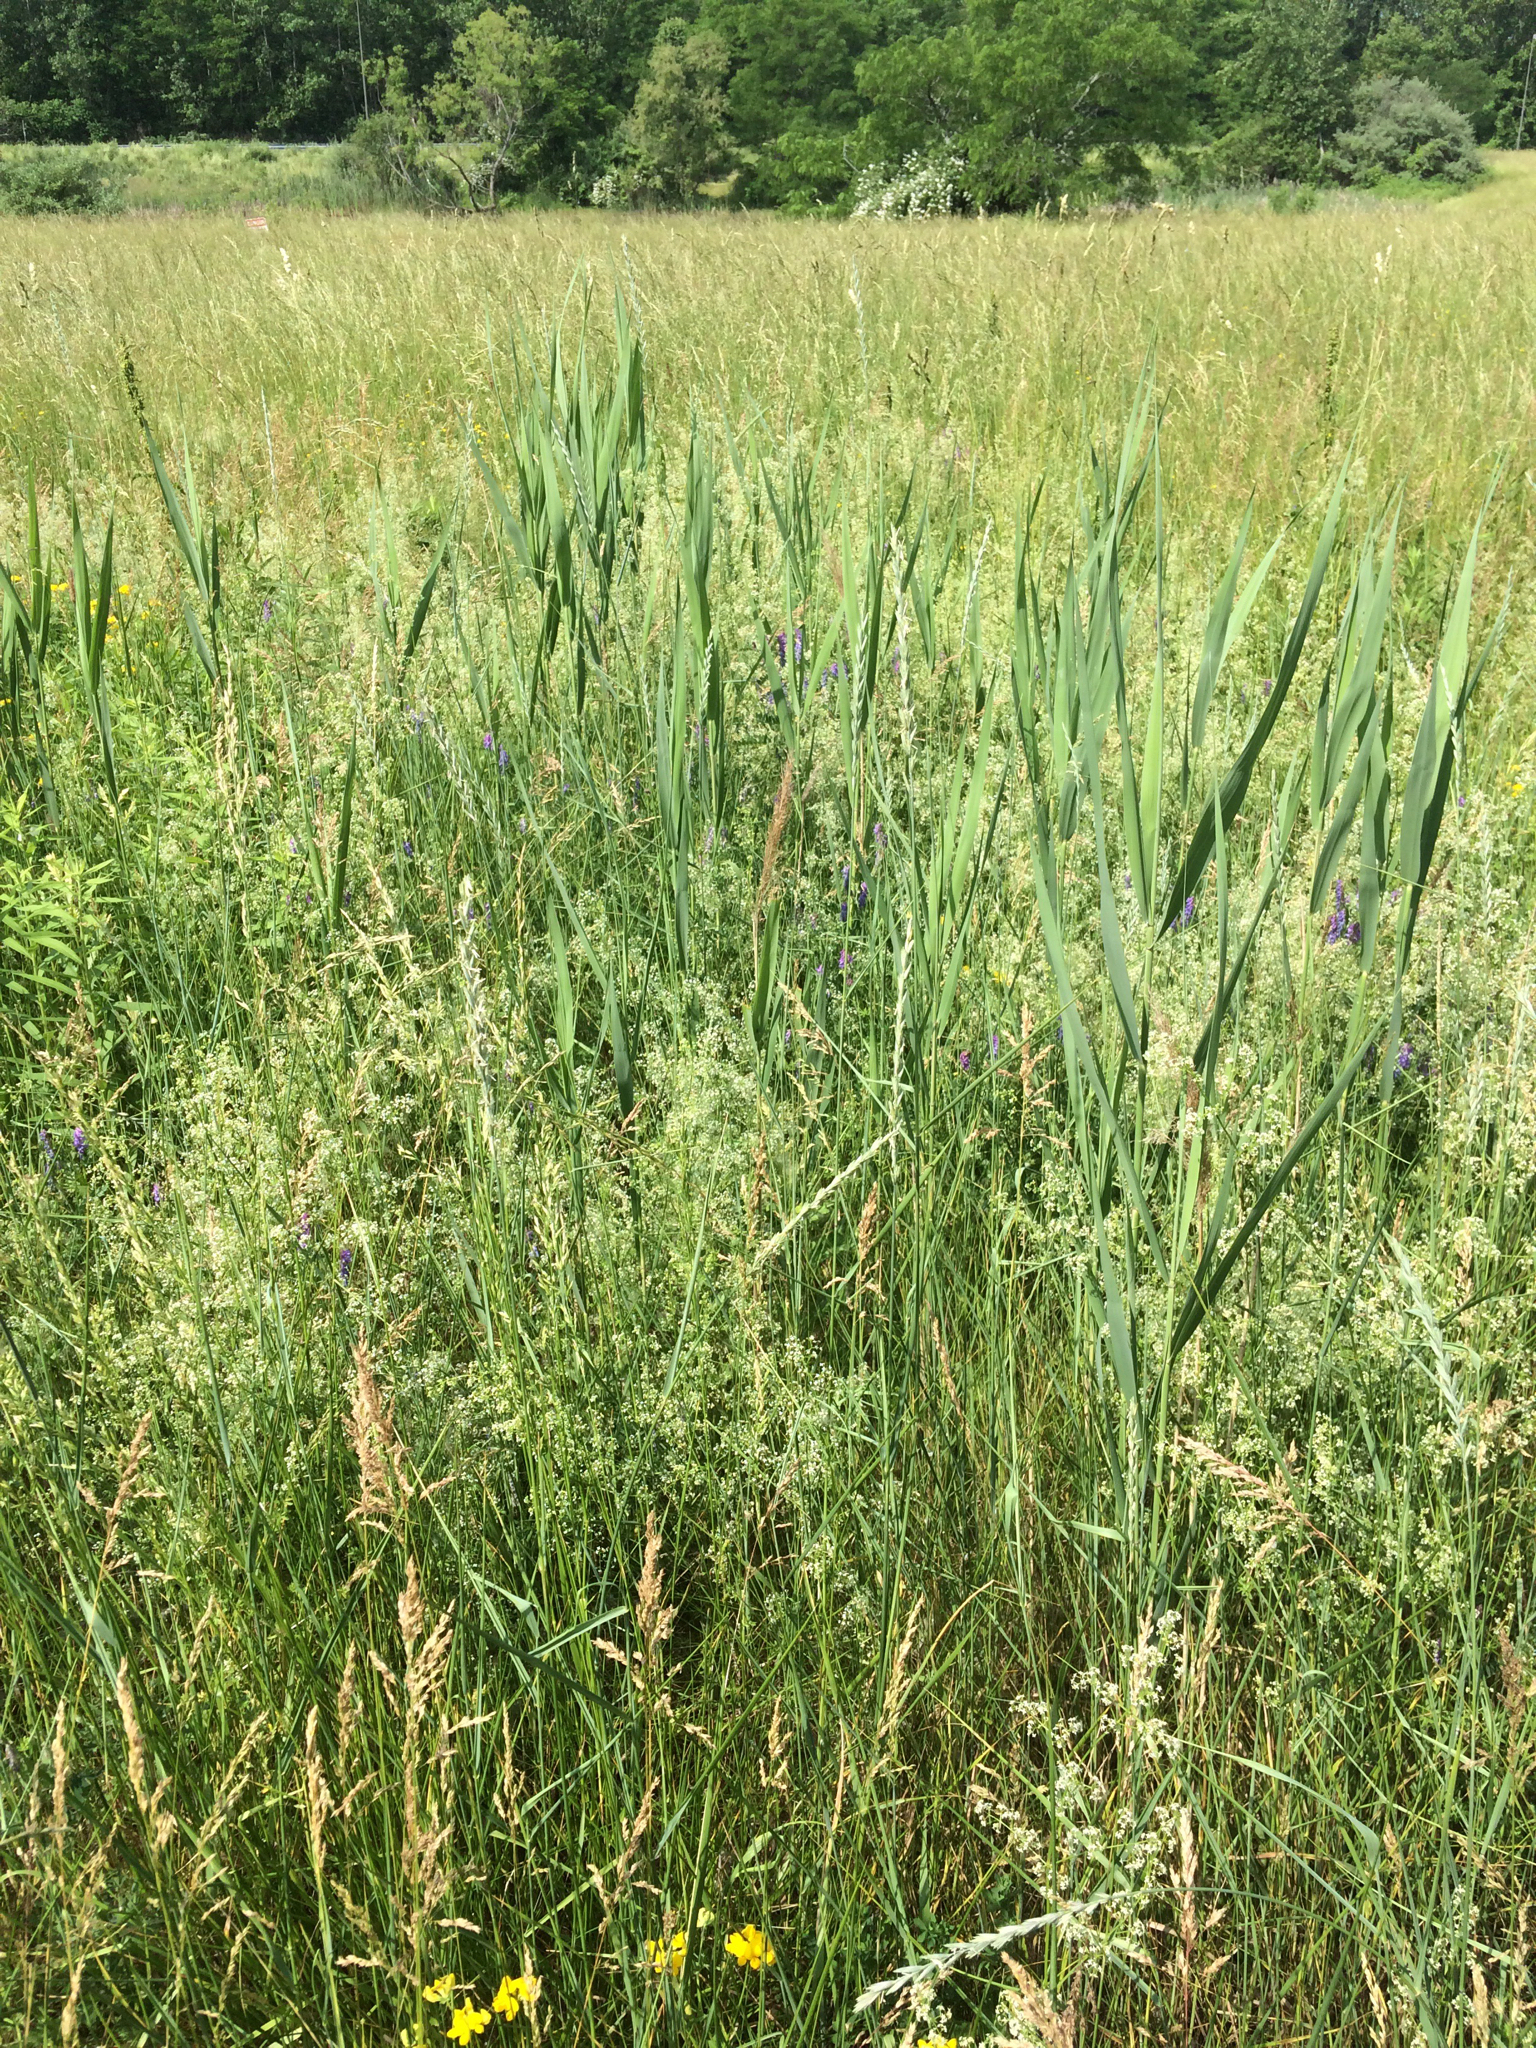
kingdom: Plantae
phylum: Tracheophyta
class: Liliopsida
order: Poales
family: Poaceae
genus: Phragmites
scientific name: Phragmites australis
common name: Common reed
